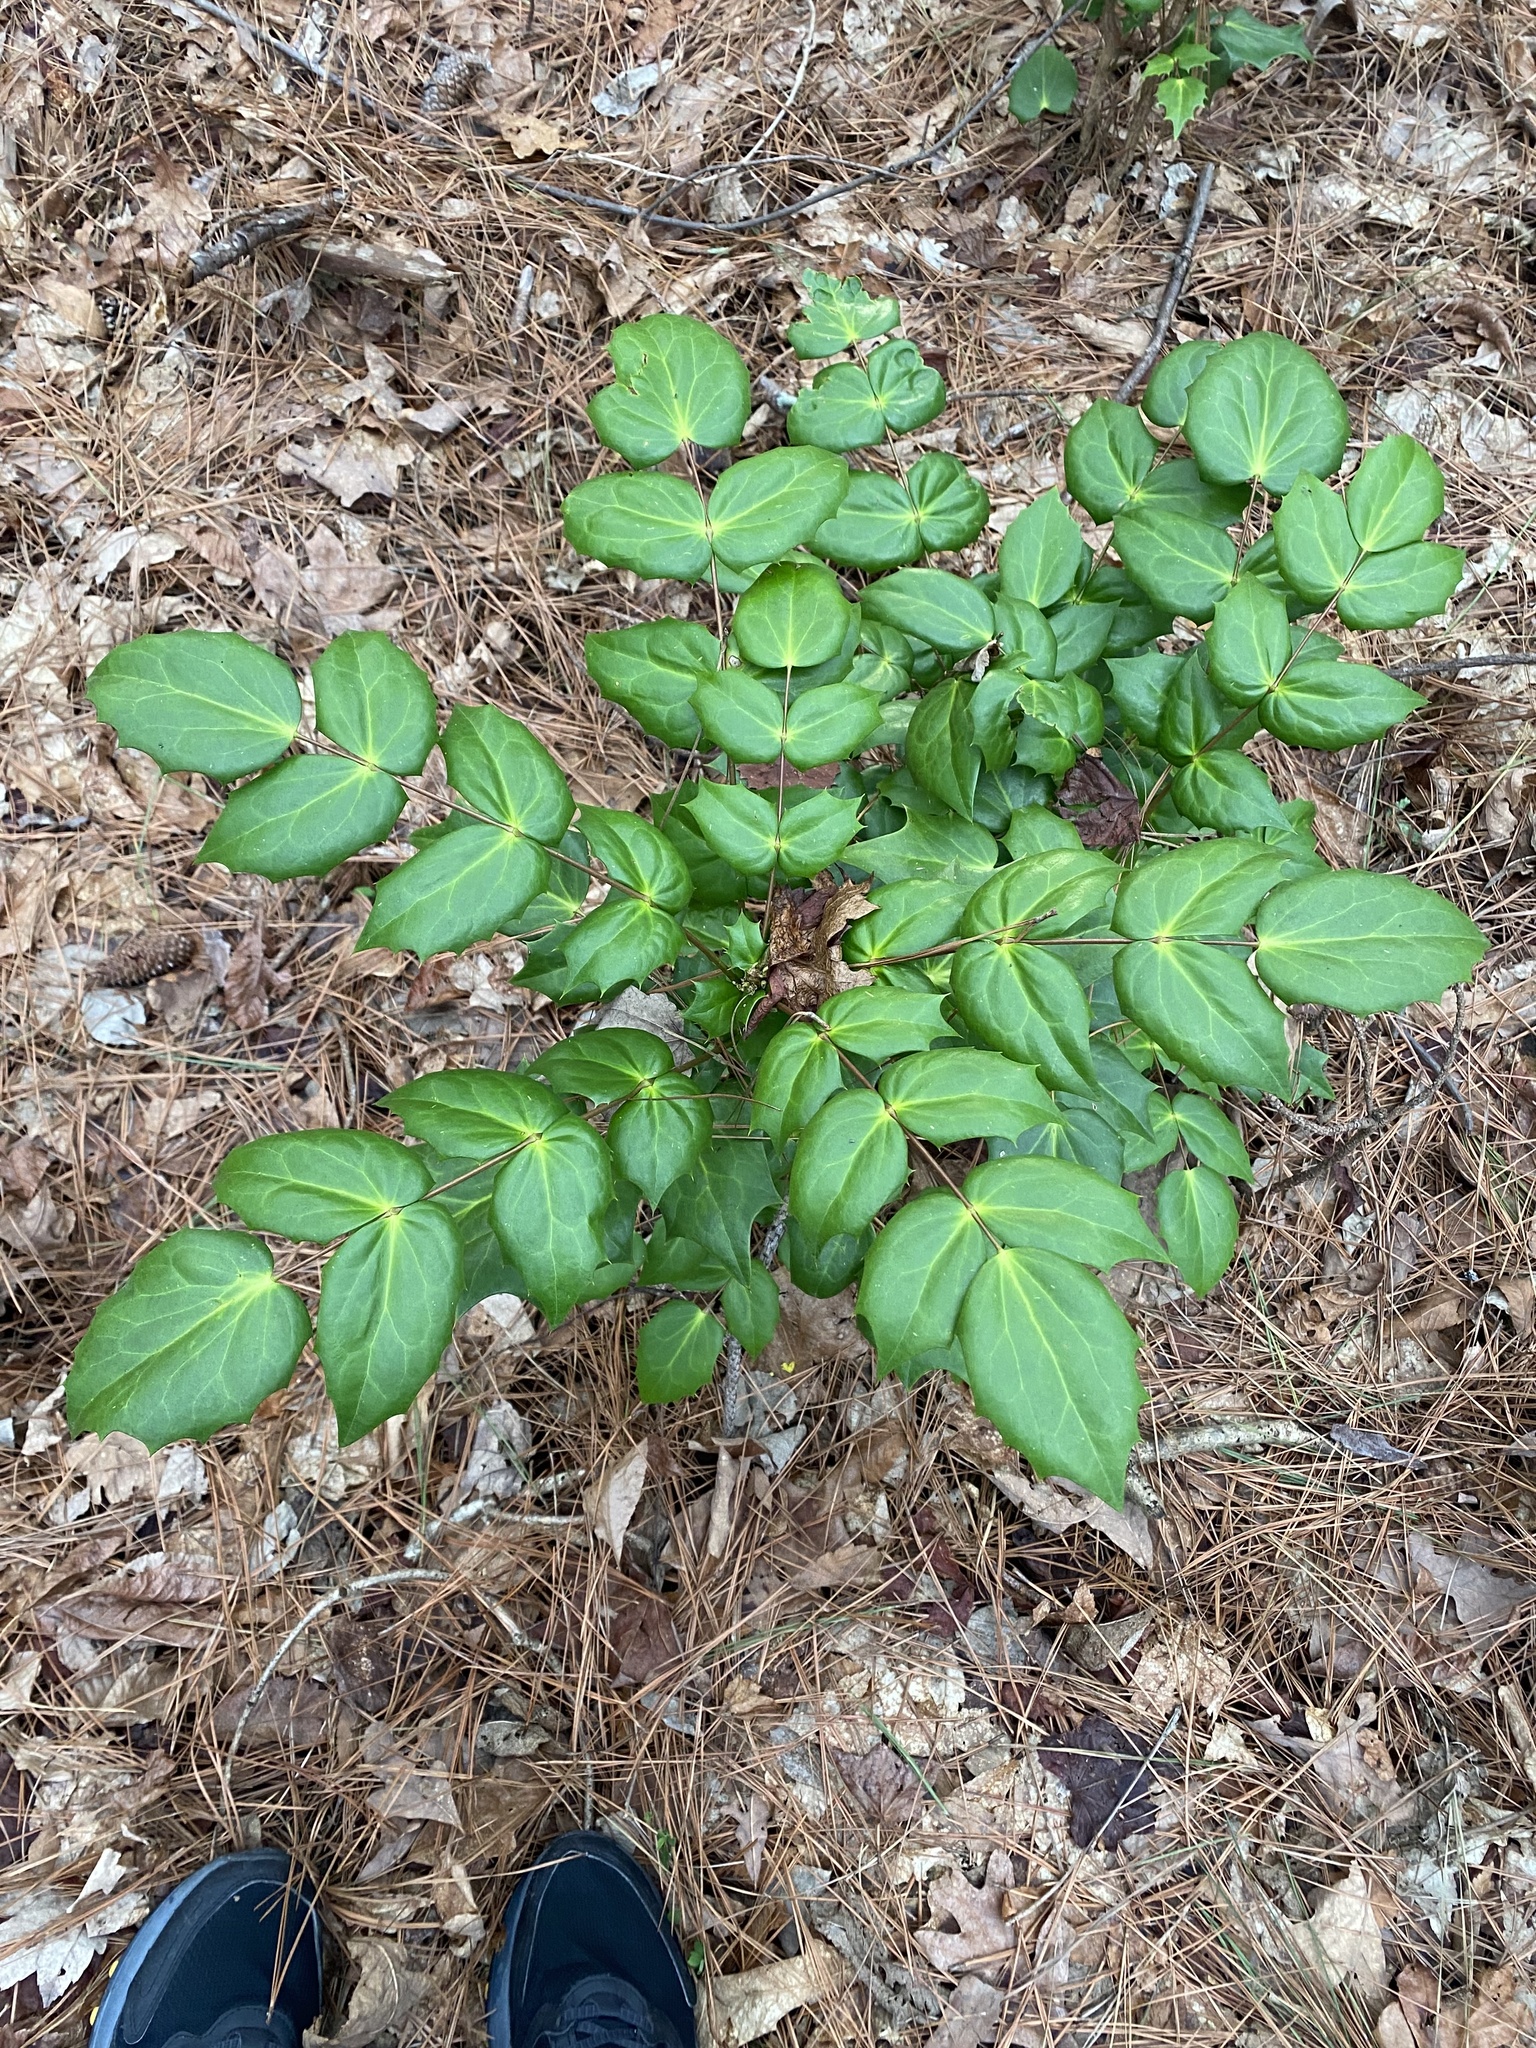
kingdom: Plantae
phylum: Tracheophyta
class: Magnoliopsida
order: Ranunculales
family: Berberidaceae
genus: Mahonia
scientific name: Mahonia bealei
